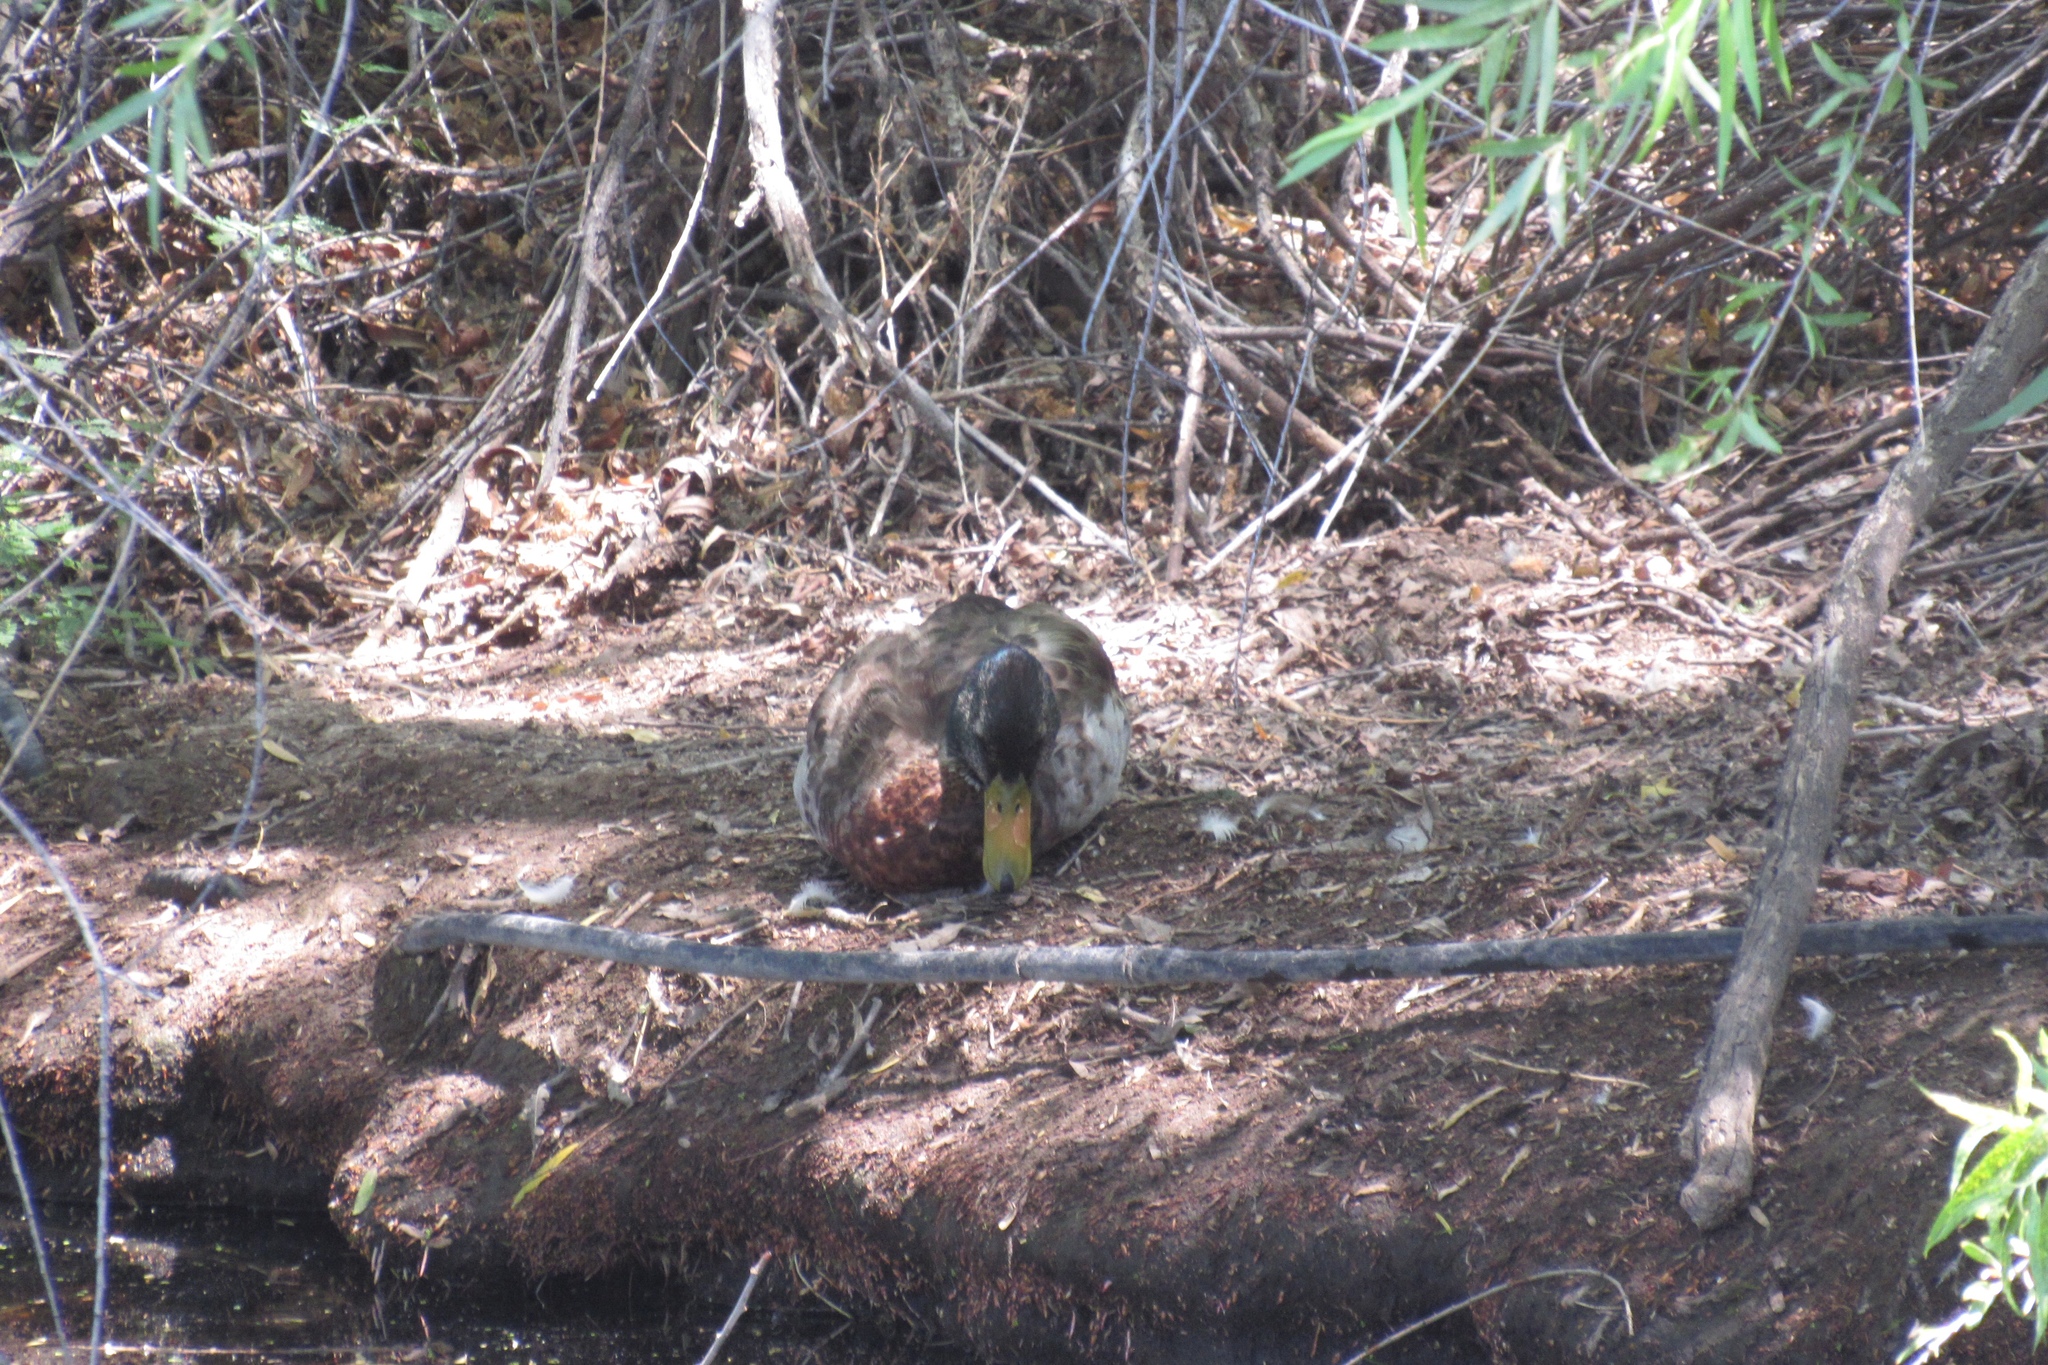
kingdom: Animalia
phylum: Chordata
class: Aves
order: Anseriformes
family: Anatidae
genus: Anas
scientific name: Anas platyrhynchos
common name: Mallard
